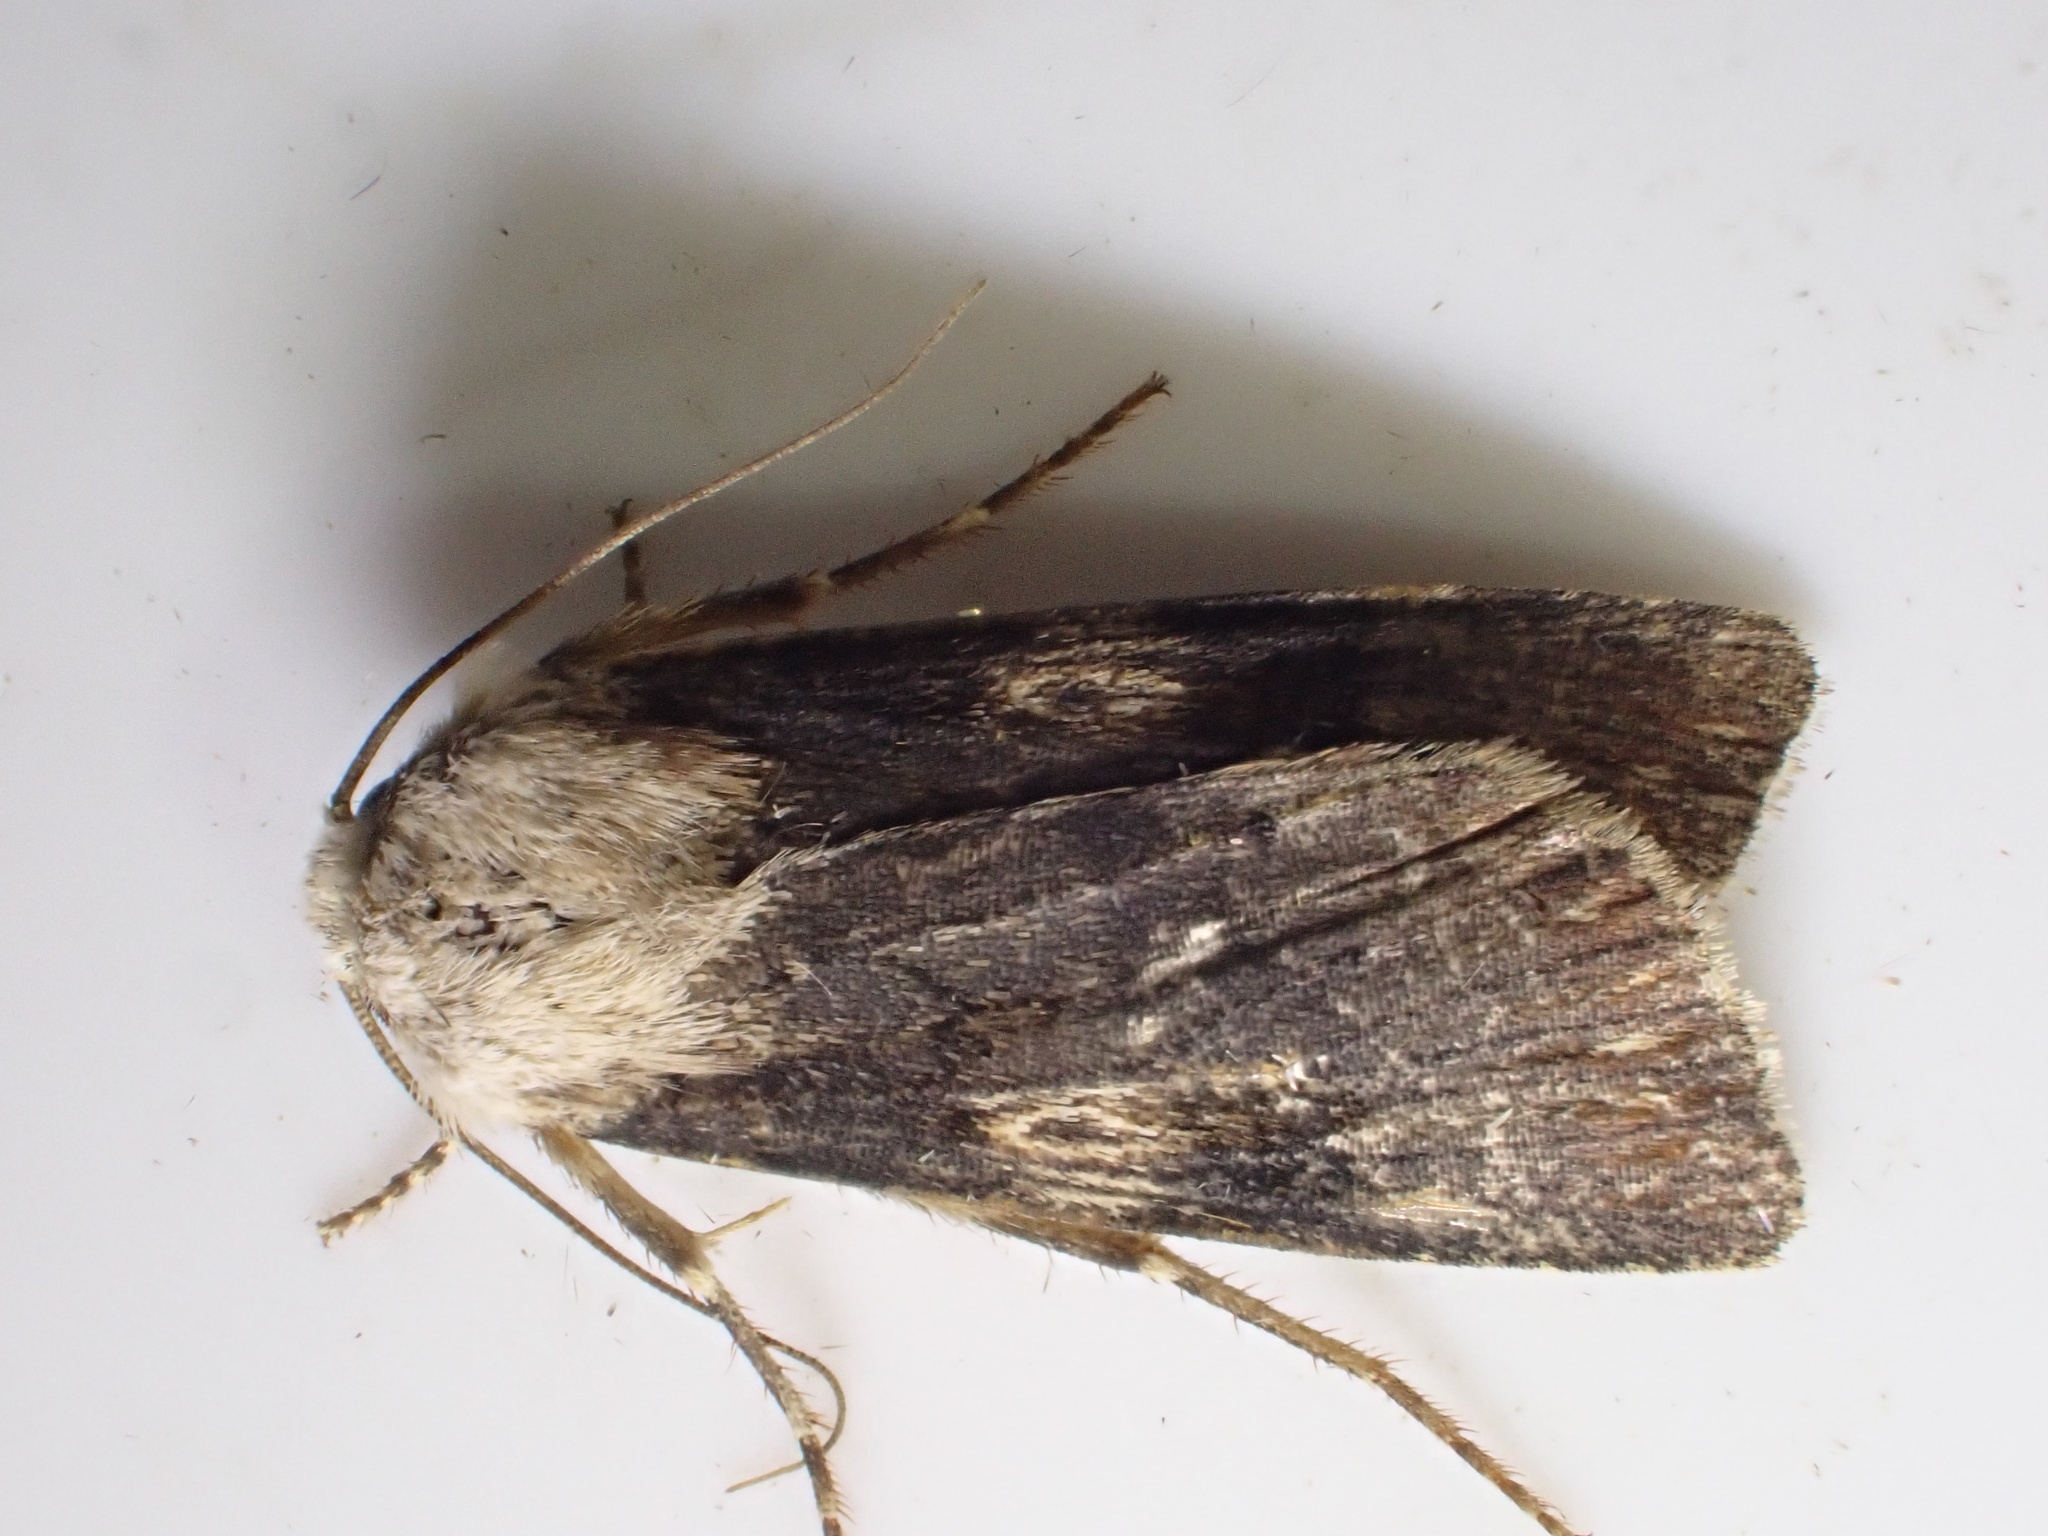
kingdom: Animalia
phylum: Arthropoda
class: Insecta
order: Lepidoptera
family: Noctuidae
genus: Agrotis
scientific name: Agrotis puta
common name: Shuttle-shaped dart
